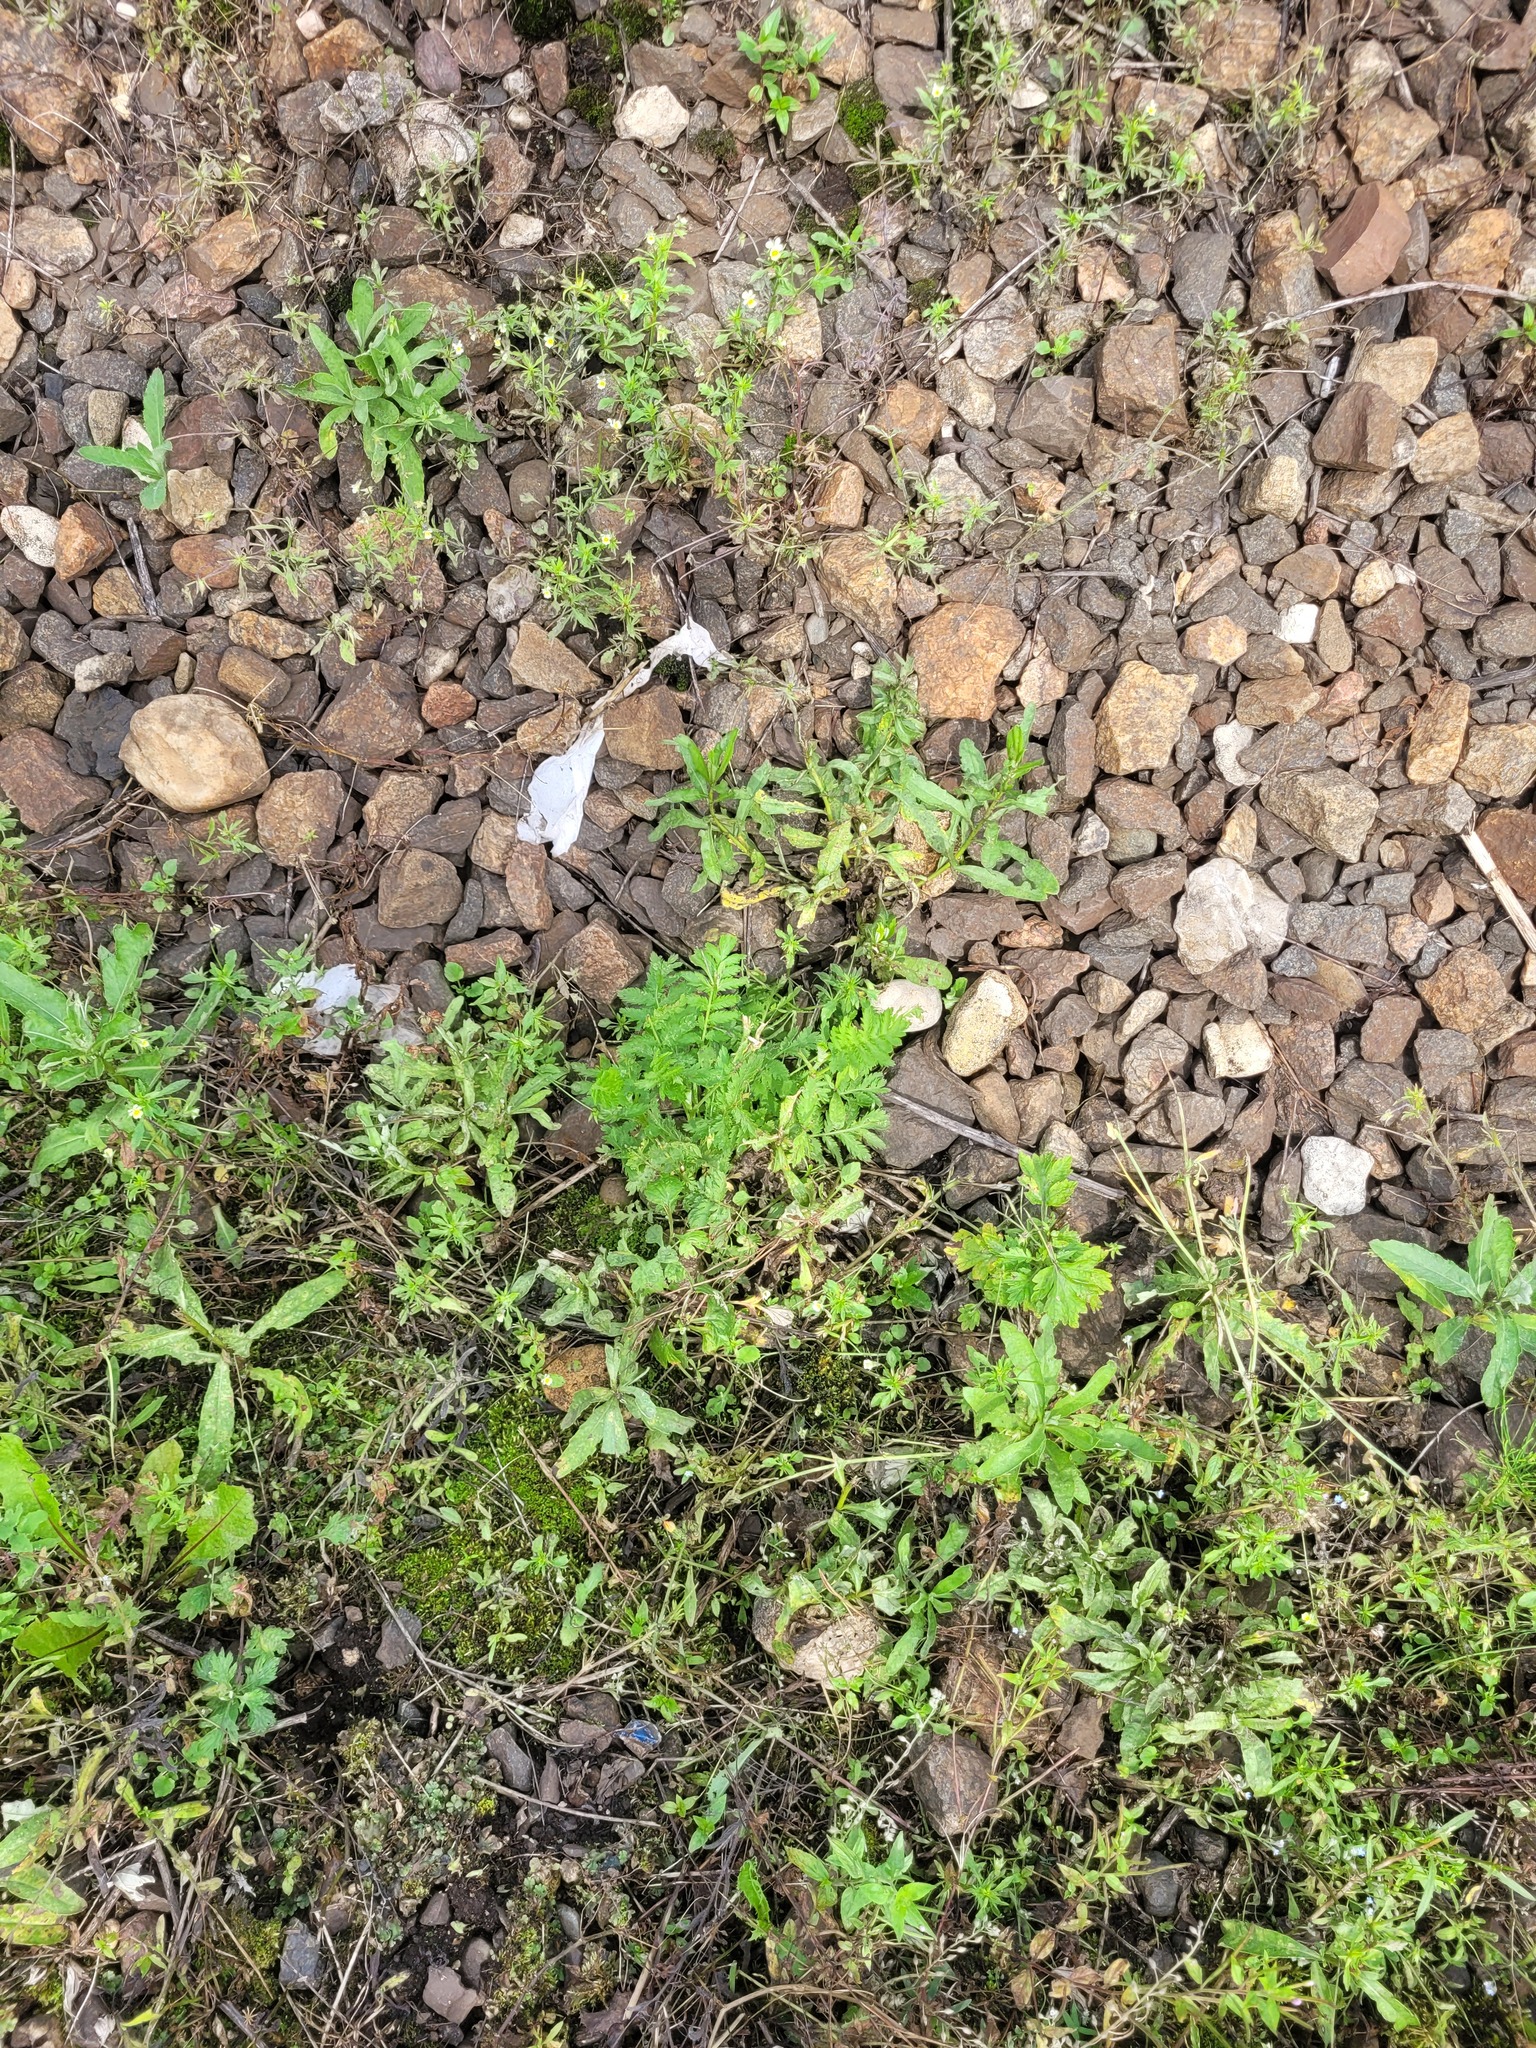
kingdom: Plantae
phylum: Tracheophyta
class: Magnoliopsida
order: Asterales
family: Asteraceae
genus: Tanacetum
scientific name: Tanacetum vulgare
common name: Common tansy
